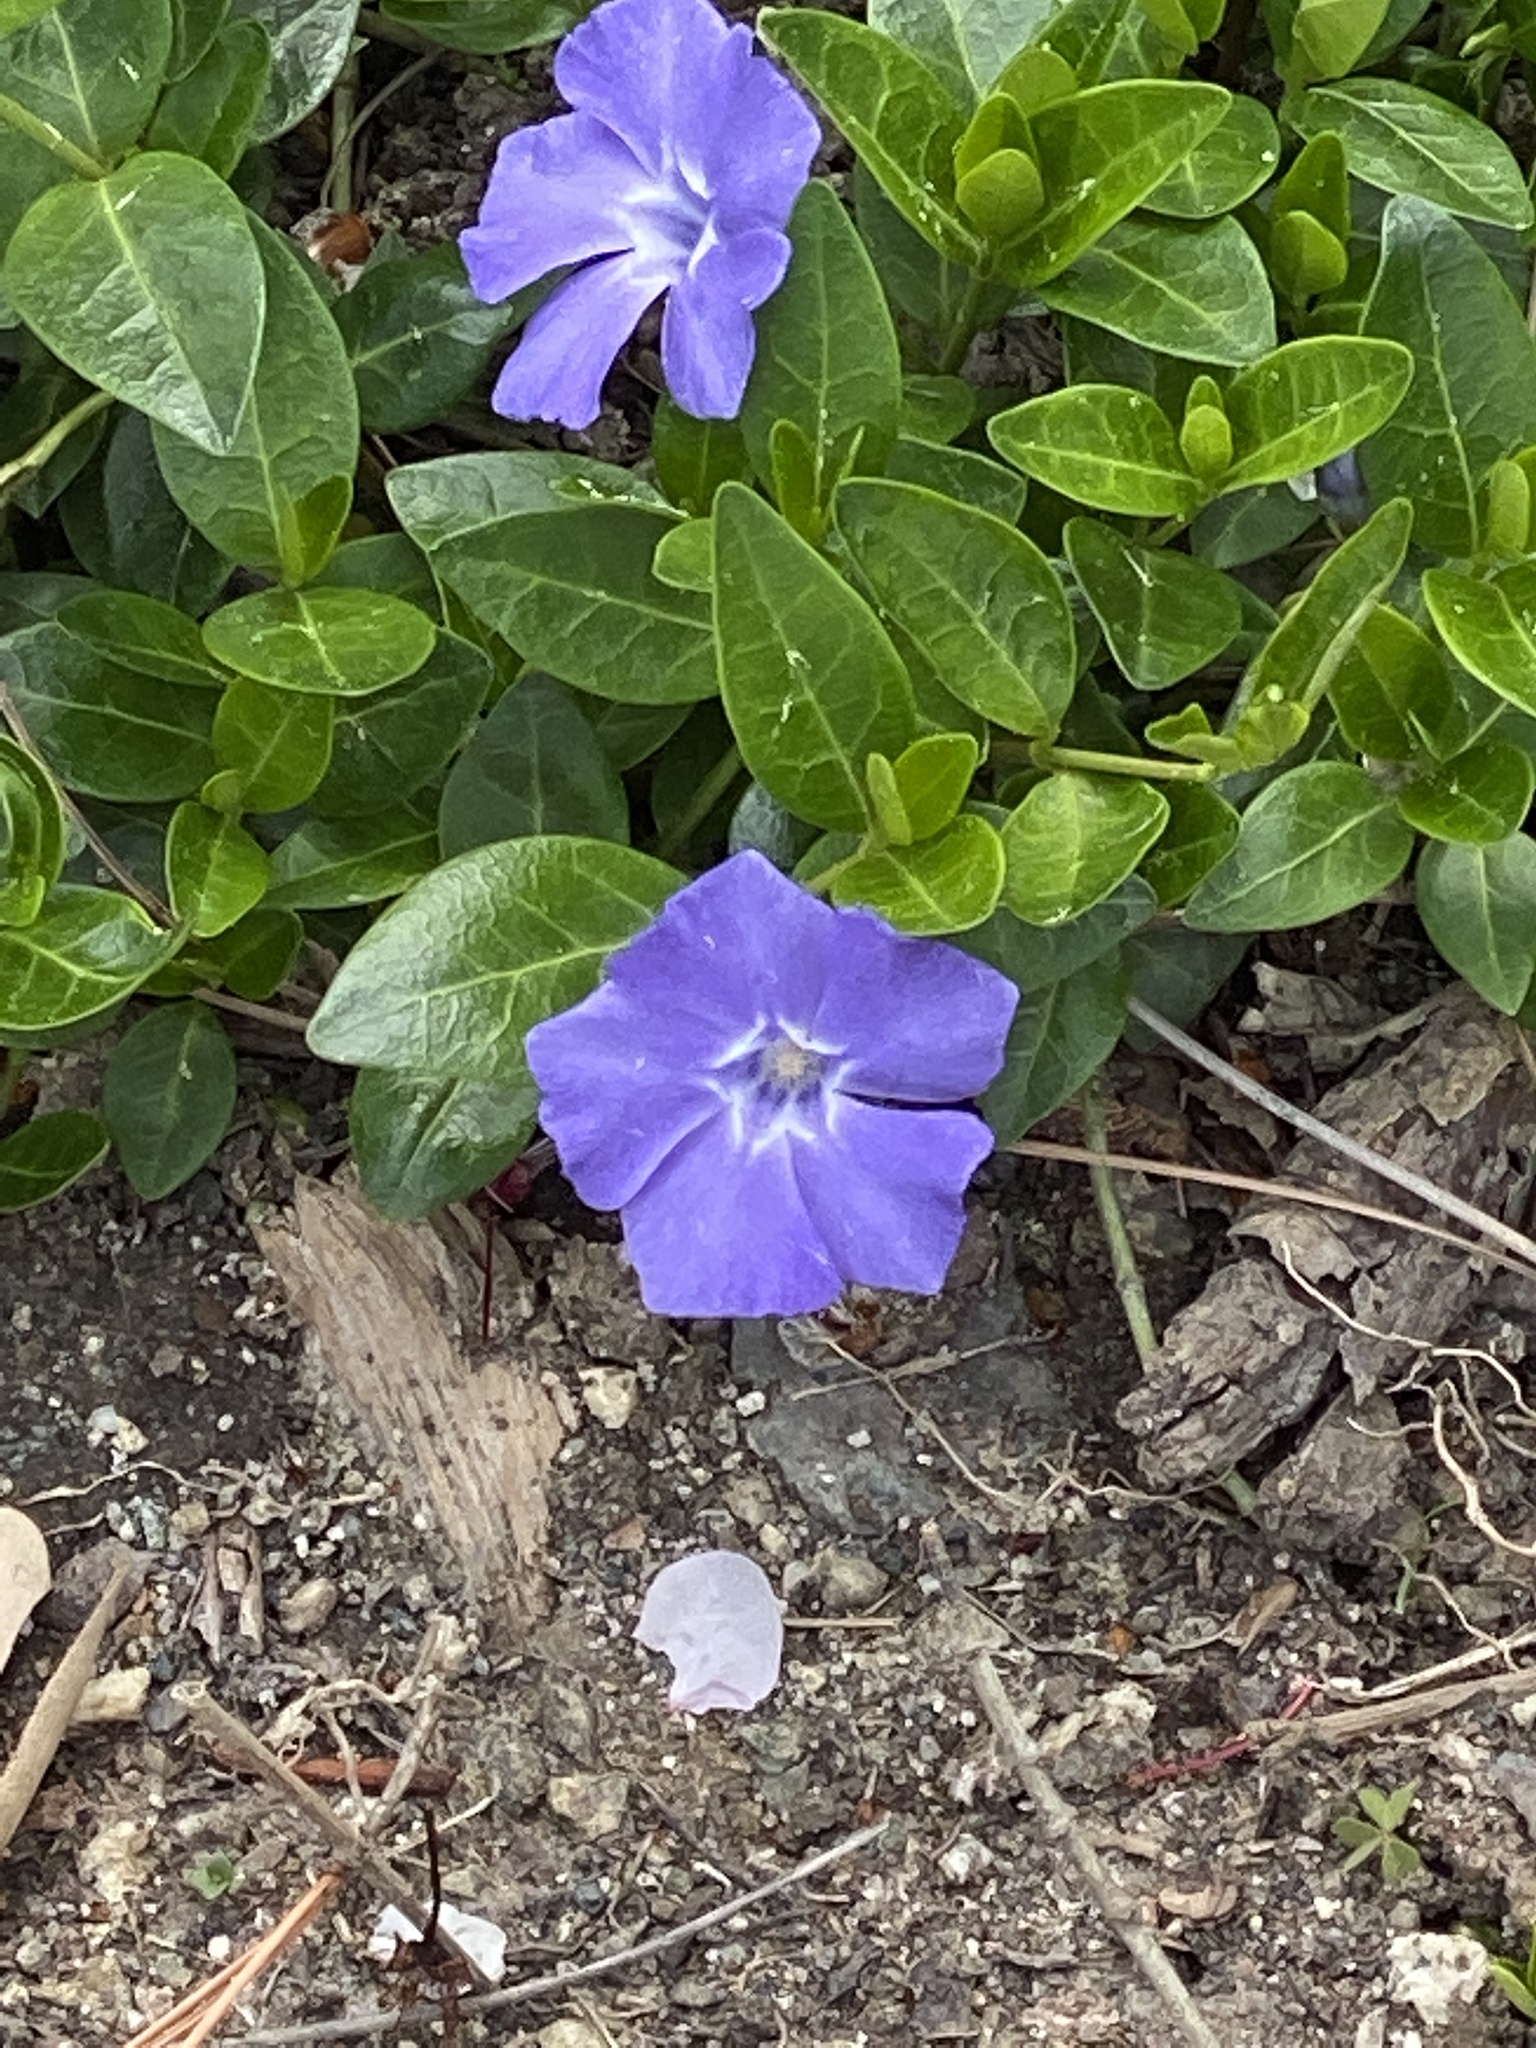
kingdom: Plantae
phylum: Tracheophyta
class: Magnoliopsida
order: Gentianales
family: Apocynaceae
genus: Vinca
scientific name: Vinca major
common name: Greater periwinkle
